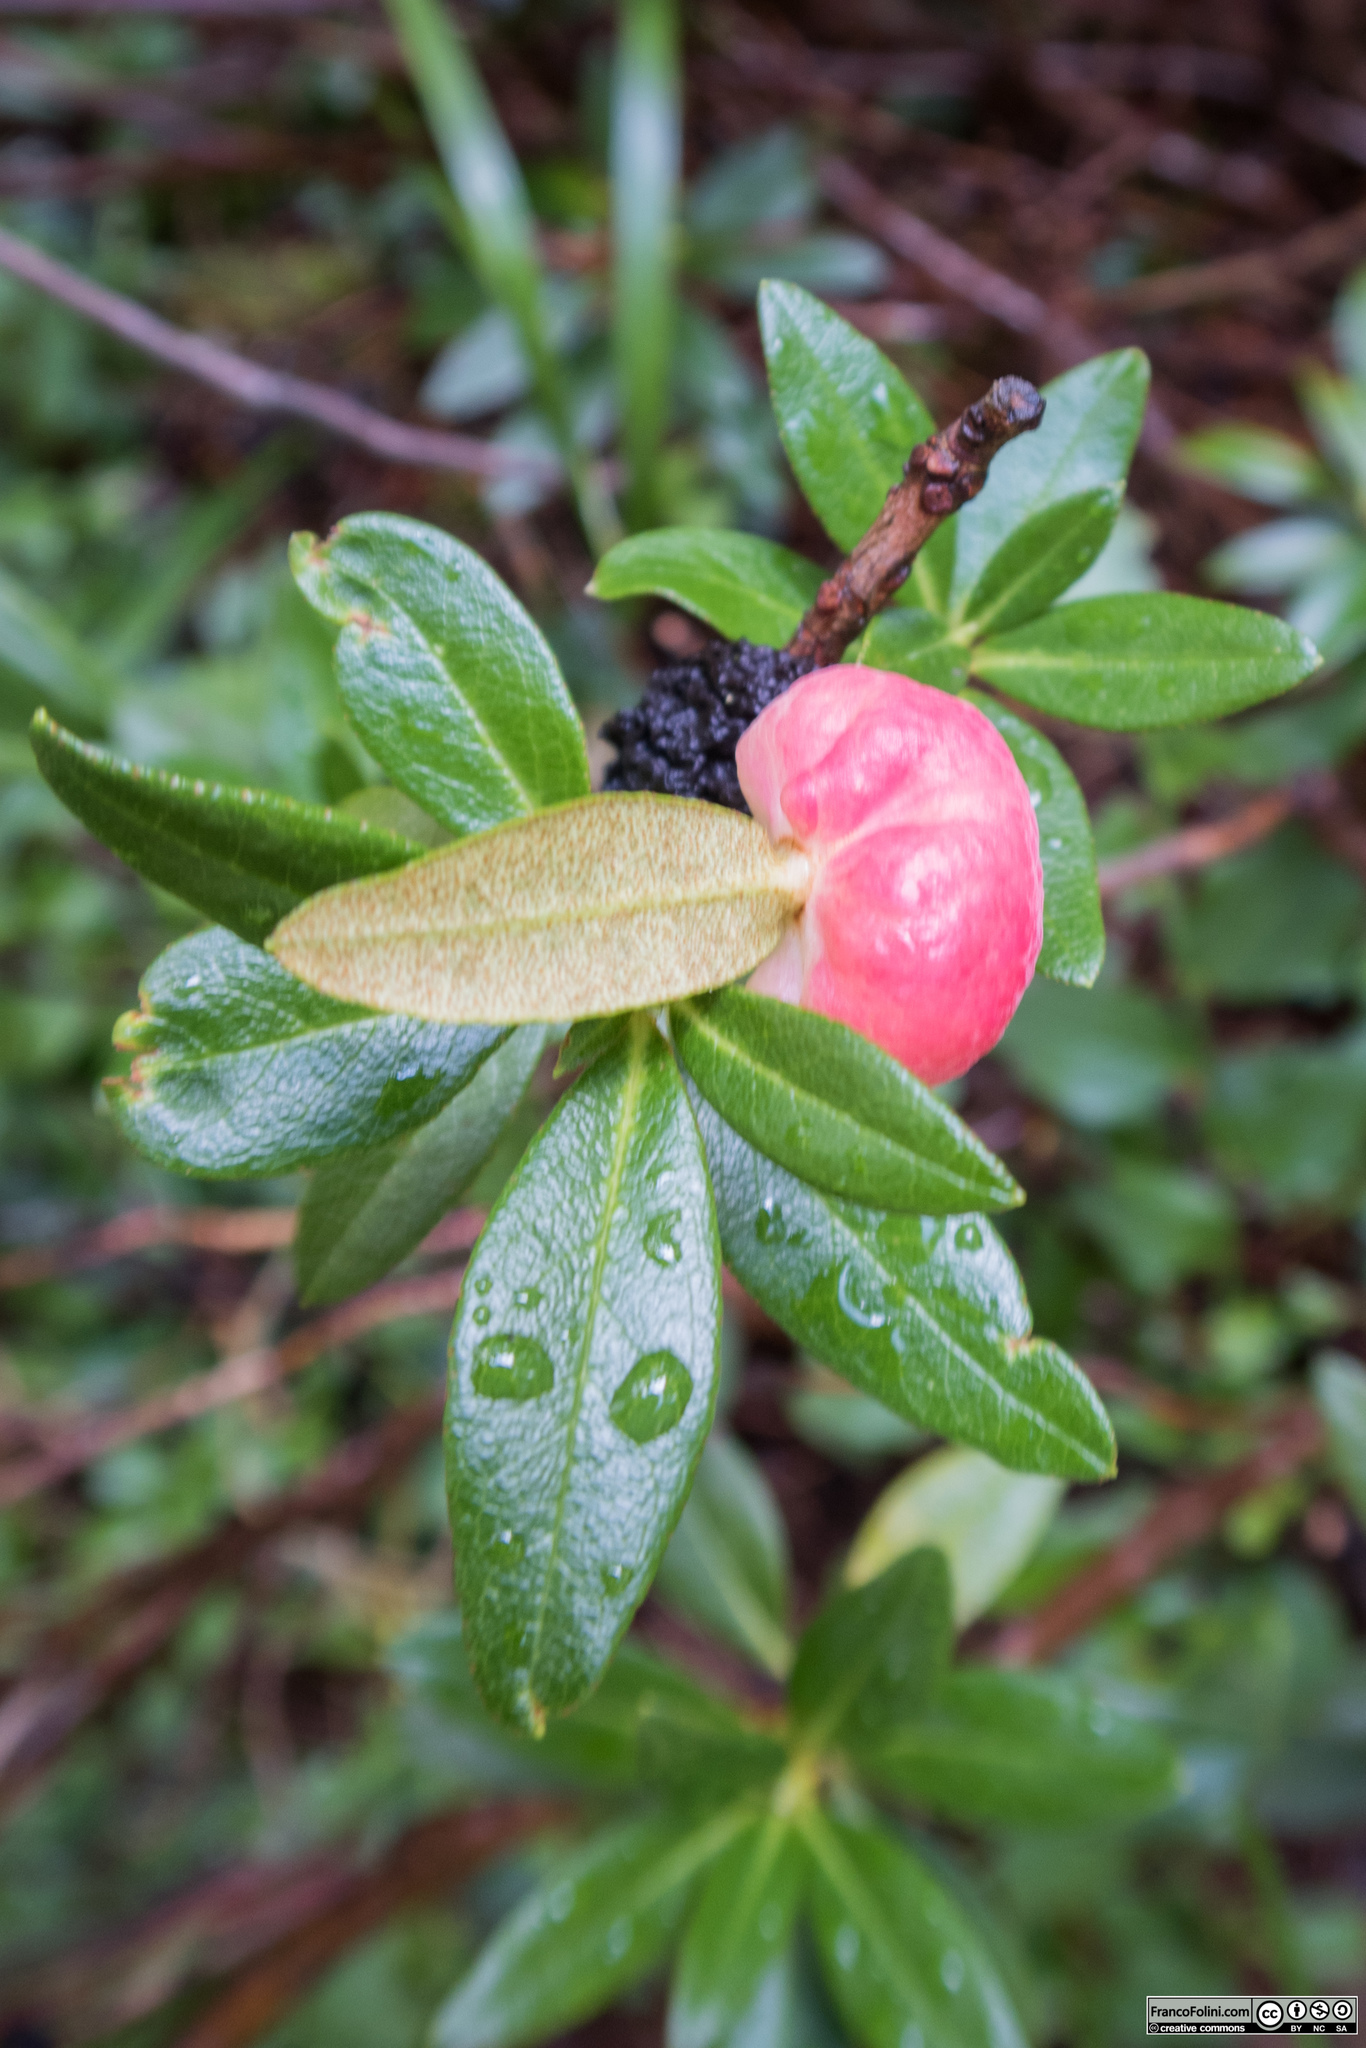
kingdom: Fungi
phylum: Basidiomycota
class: Exobasidiomycetes
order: Exobasidiales
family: Exobasidiaceae
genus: Exobasidium
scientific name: Exobasidium rhododendri
